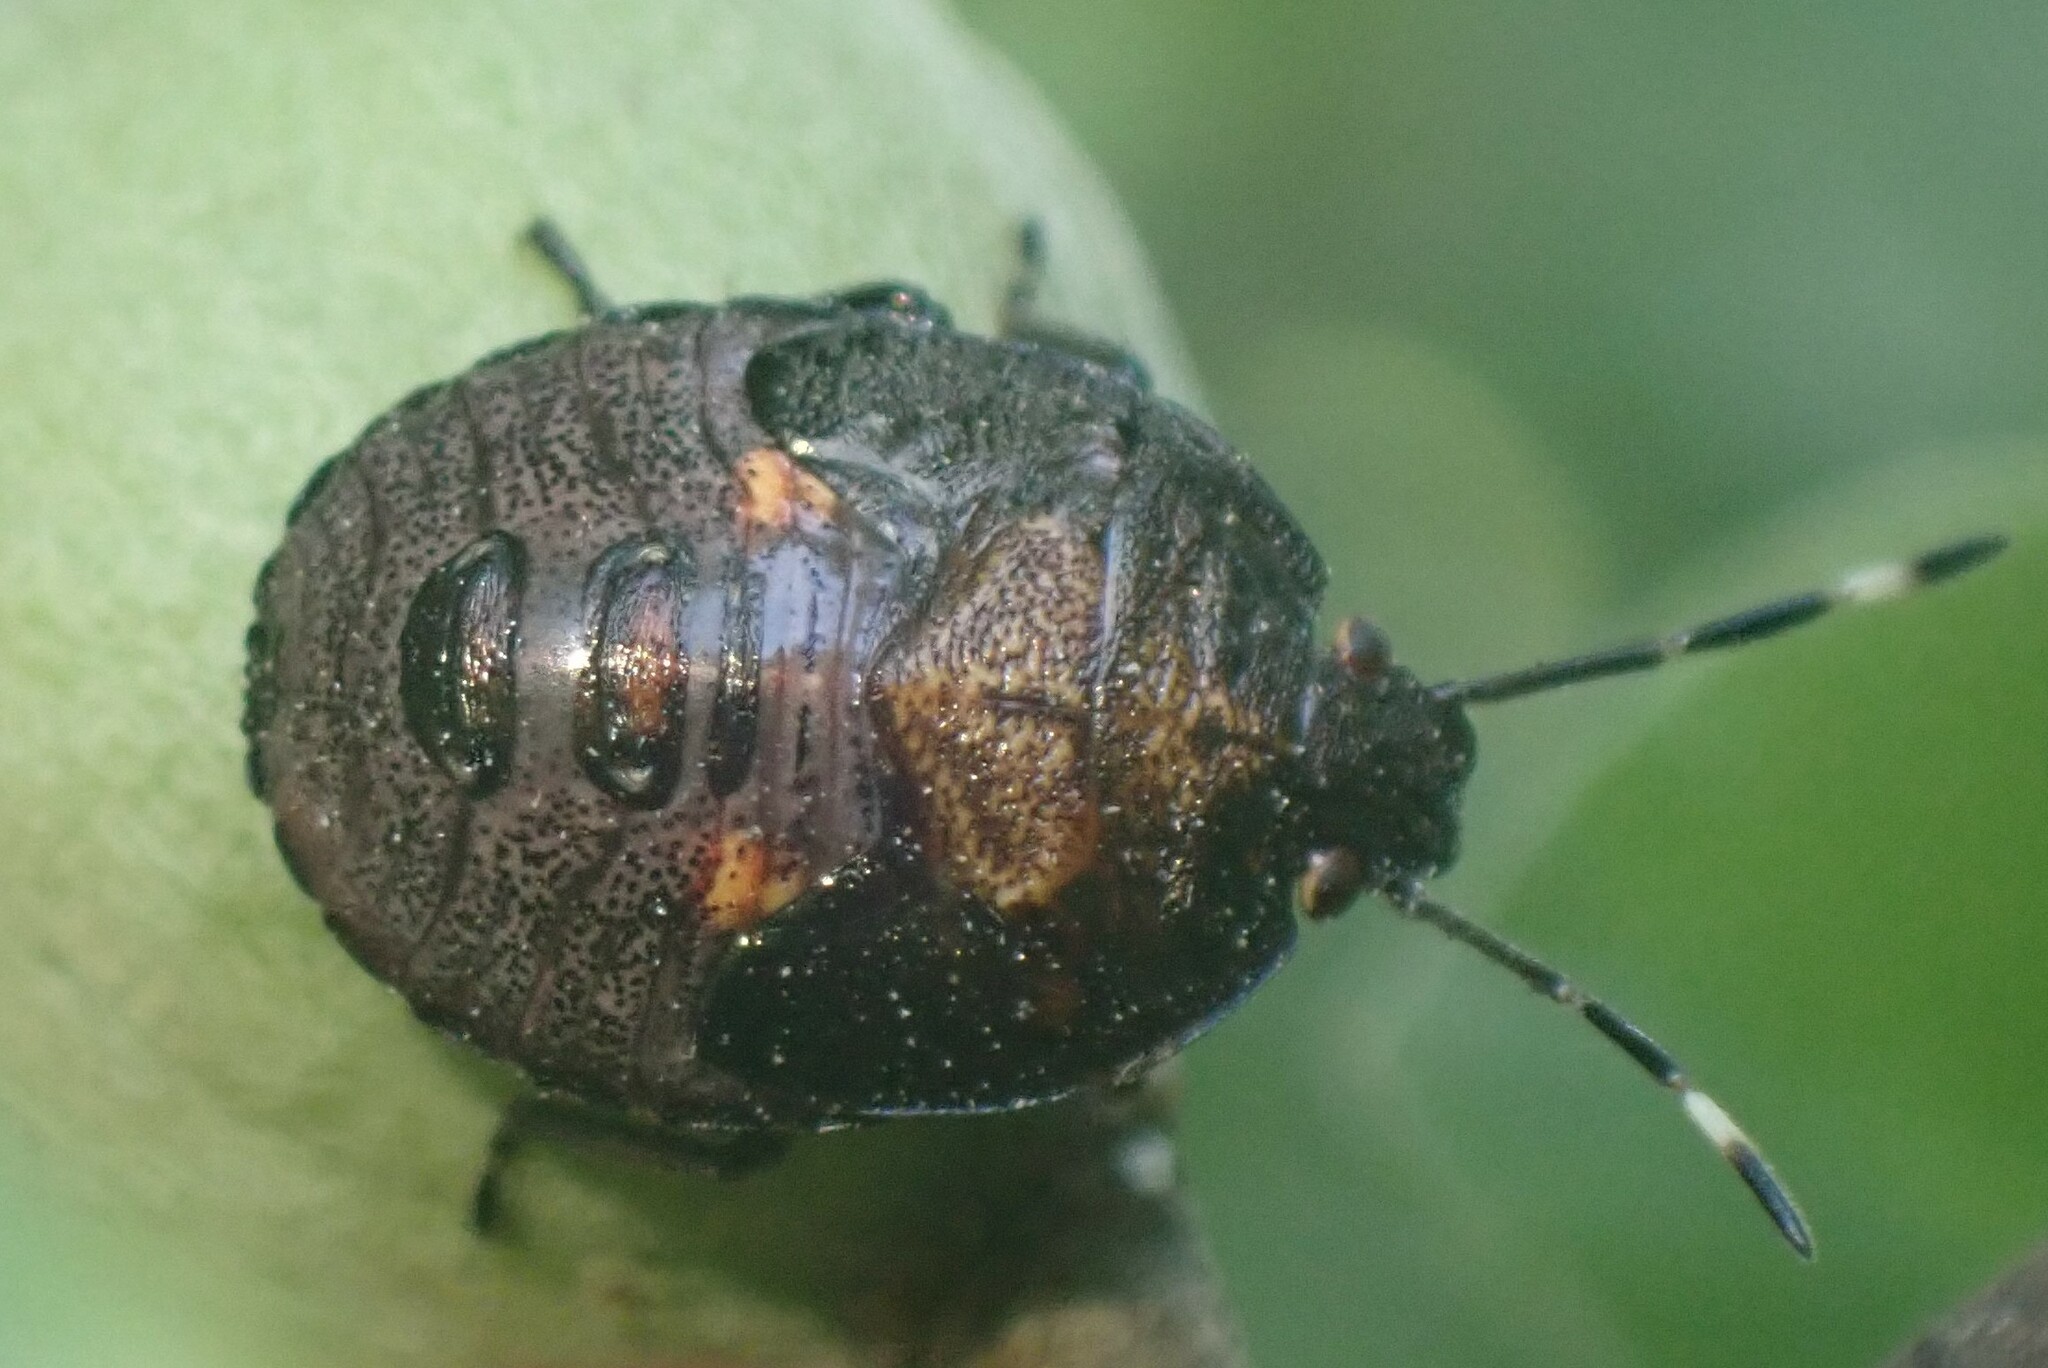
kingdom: Animalia
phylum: Arthropoda
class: Insecta
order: Hemiptera
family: Pentatomidae
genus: Monteithiella
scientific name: Monteithiella
